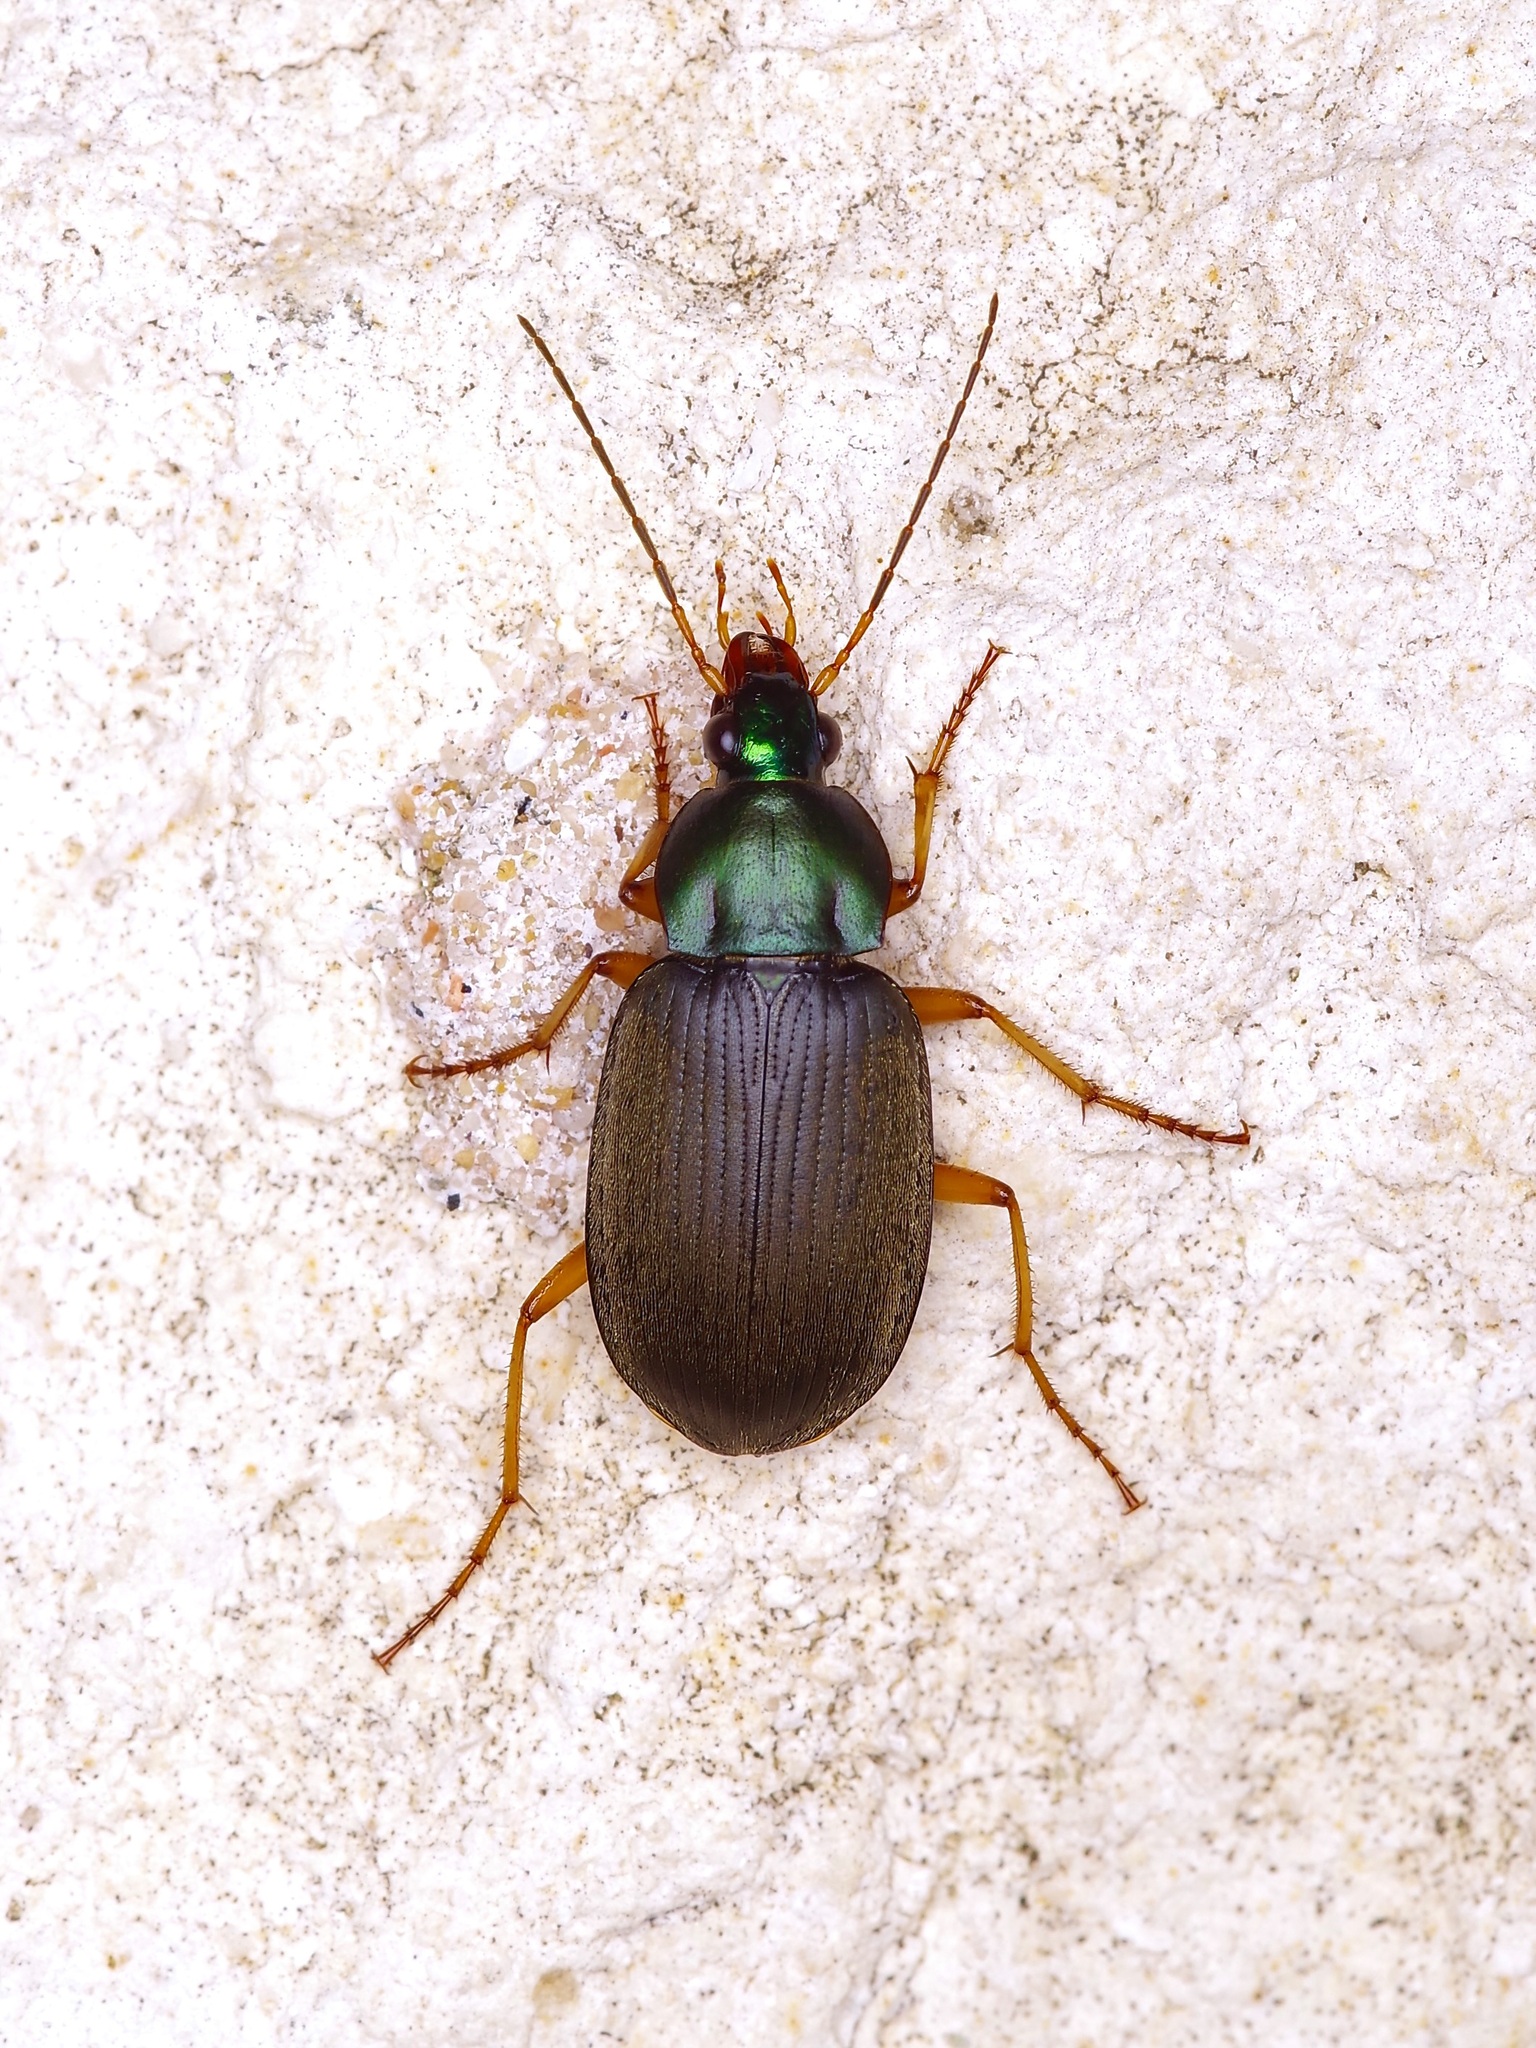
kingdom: Animalia
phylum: Arthropoda
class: Insecta
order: Coleoptera
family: Carabidae
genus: Chlaenius
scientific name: Chlaenius vafer
